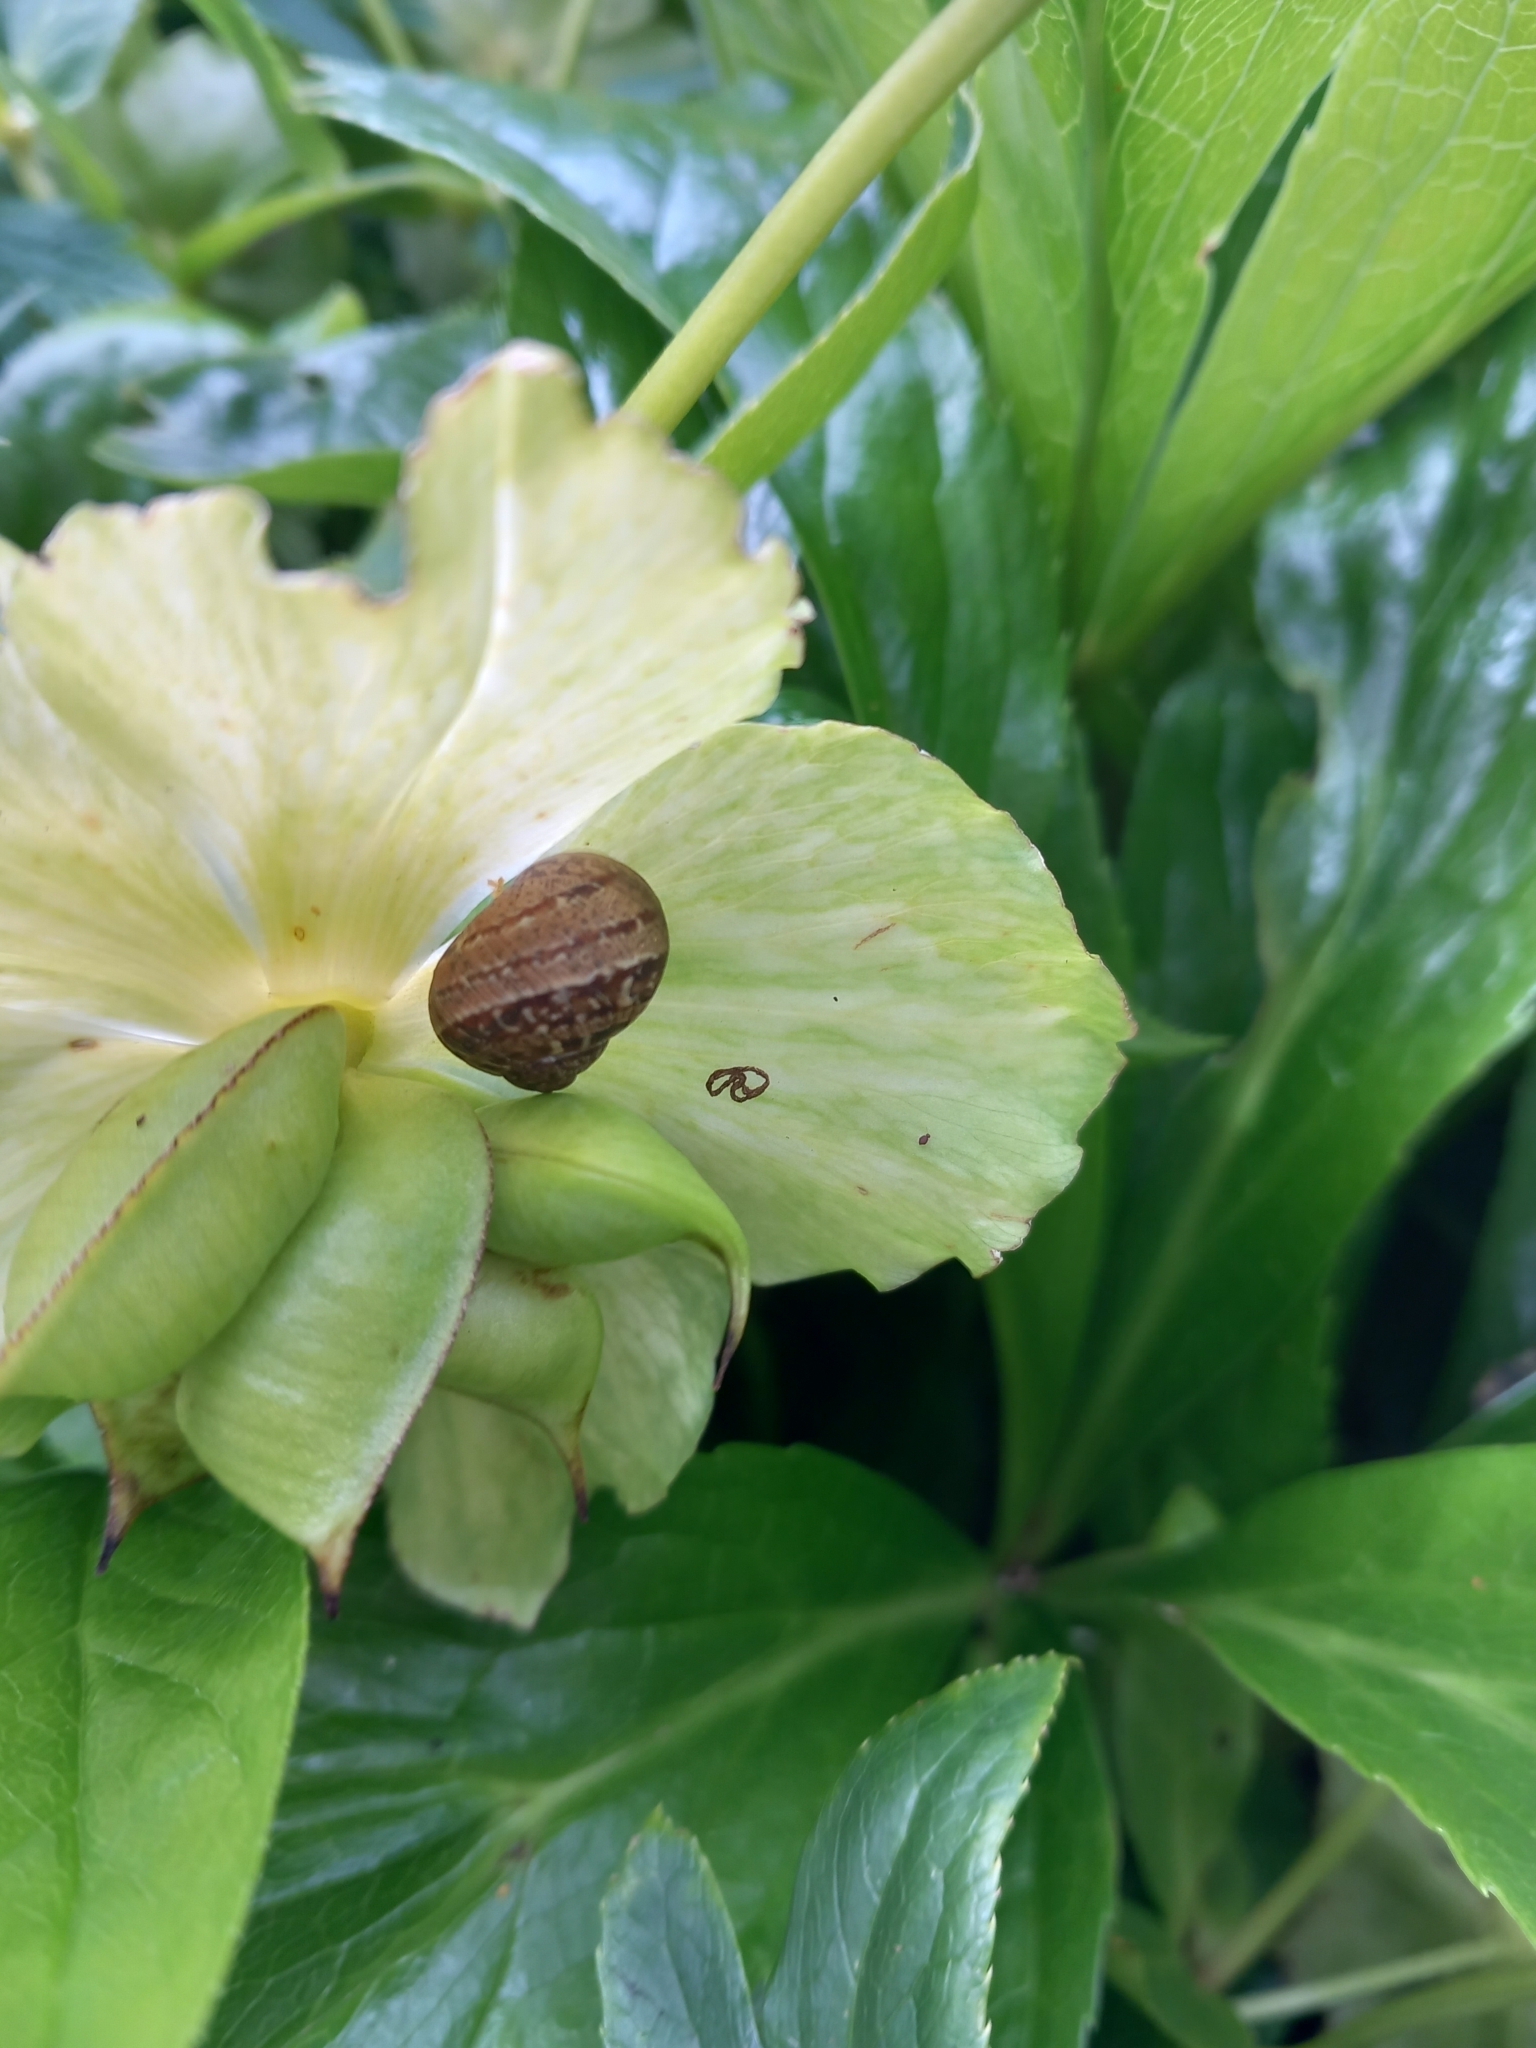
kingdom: Animalia
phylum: Mollusca
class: Gastropoda
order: Stylommatophora
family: Helicidae
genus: Cornu
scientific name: Cornu aspersum
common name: Brown garden snail
